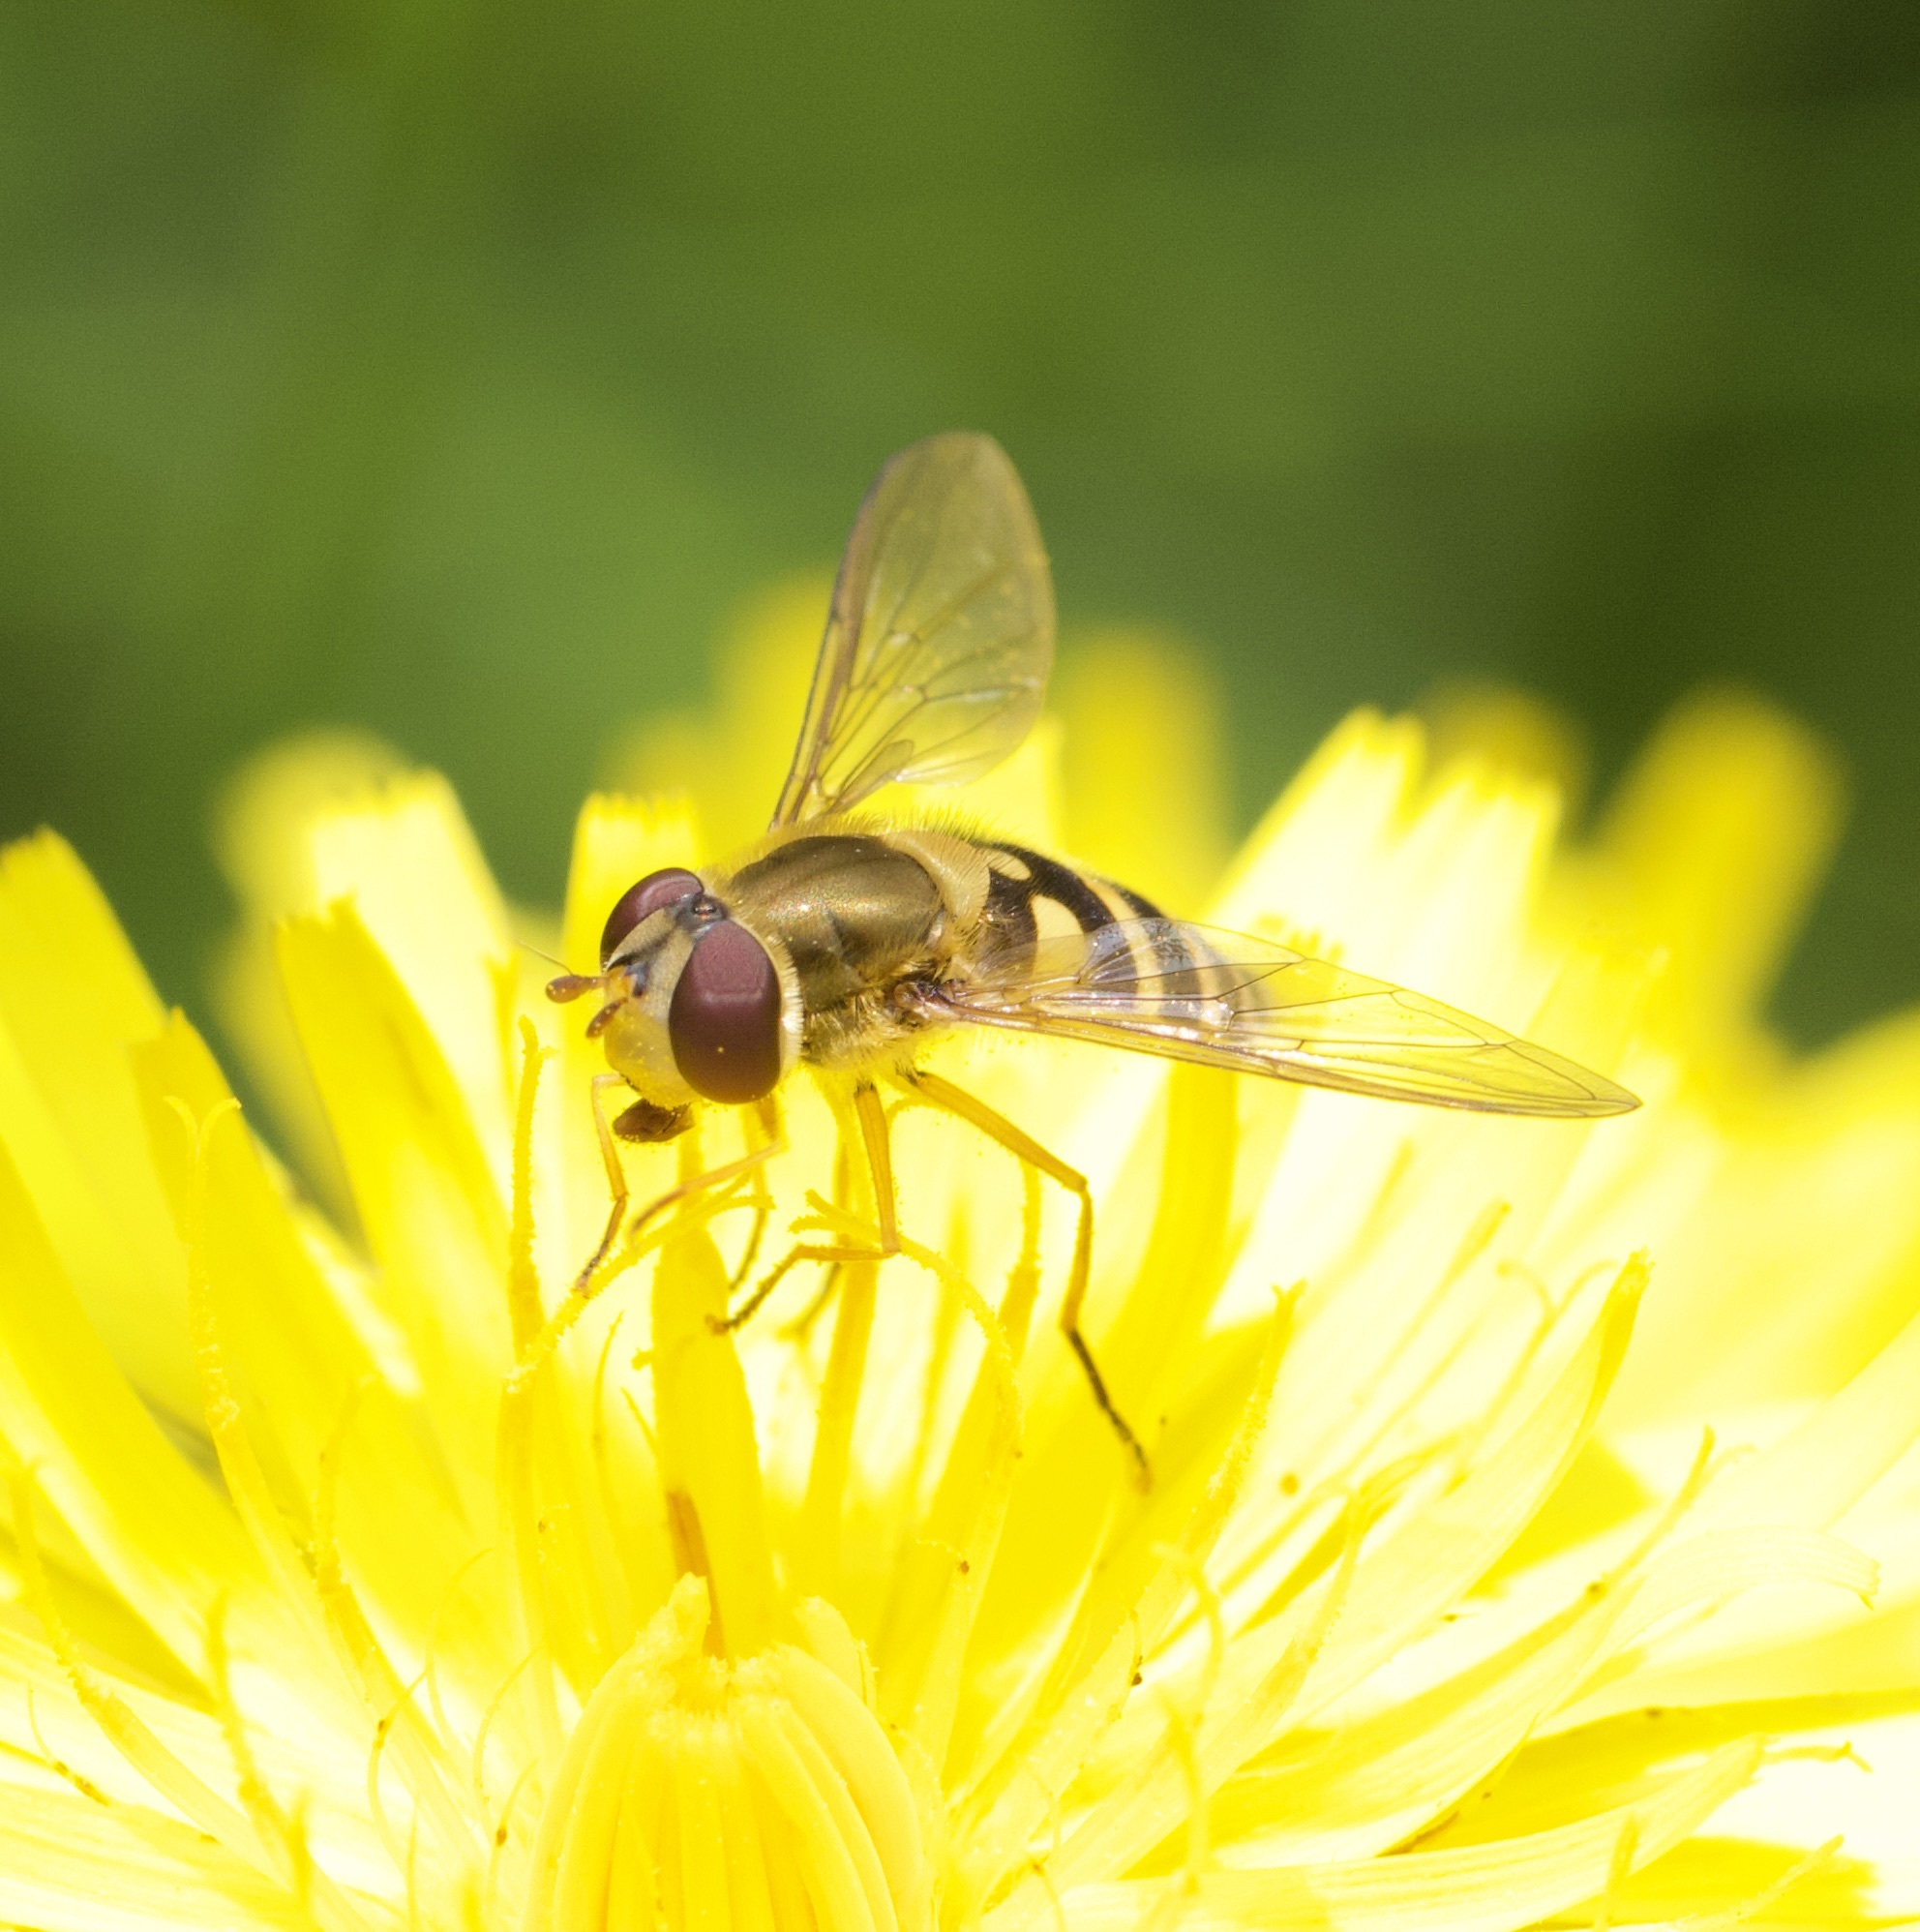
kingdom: Animalia
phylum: Arthropoda
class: Insecta
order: Diptera
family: Syrphidae
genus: Syrphus
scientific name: Syrphus ribesii
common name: Common flower fly
